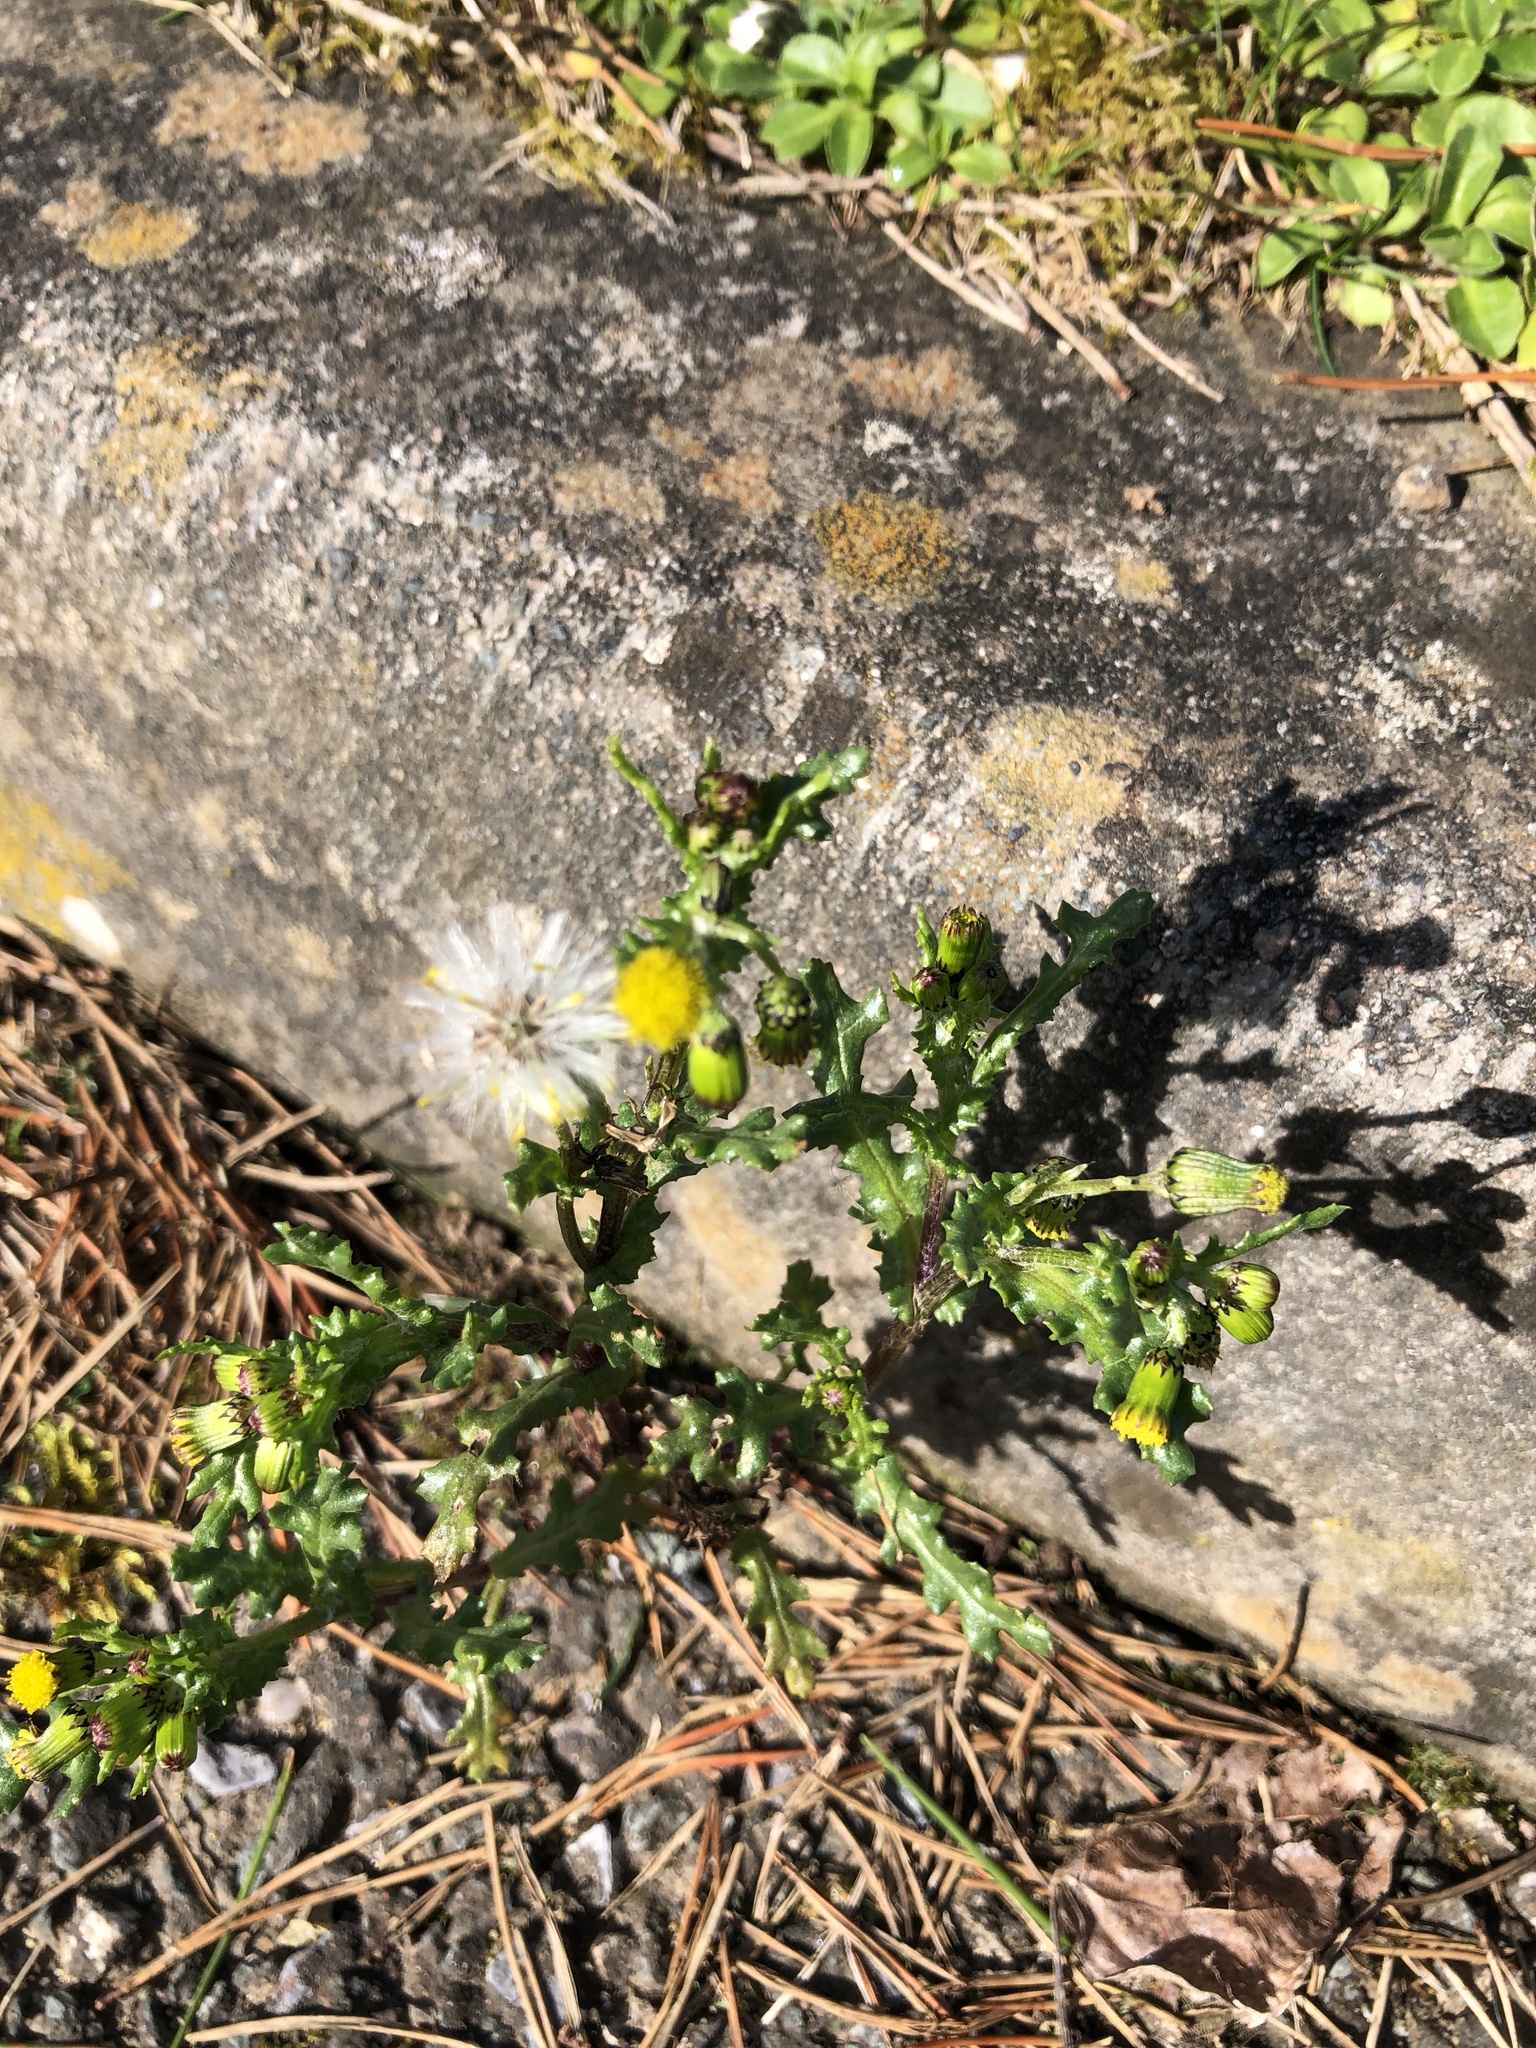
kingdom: Plantae
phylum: Tracheophyta
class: Magnoliopsida
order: Asterales
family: Asteraceae
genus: Senecio
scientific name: Senecio vulgaris
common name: Old-man-in-the-spring
